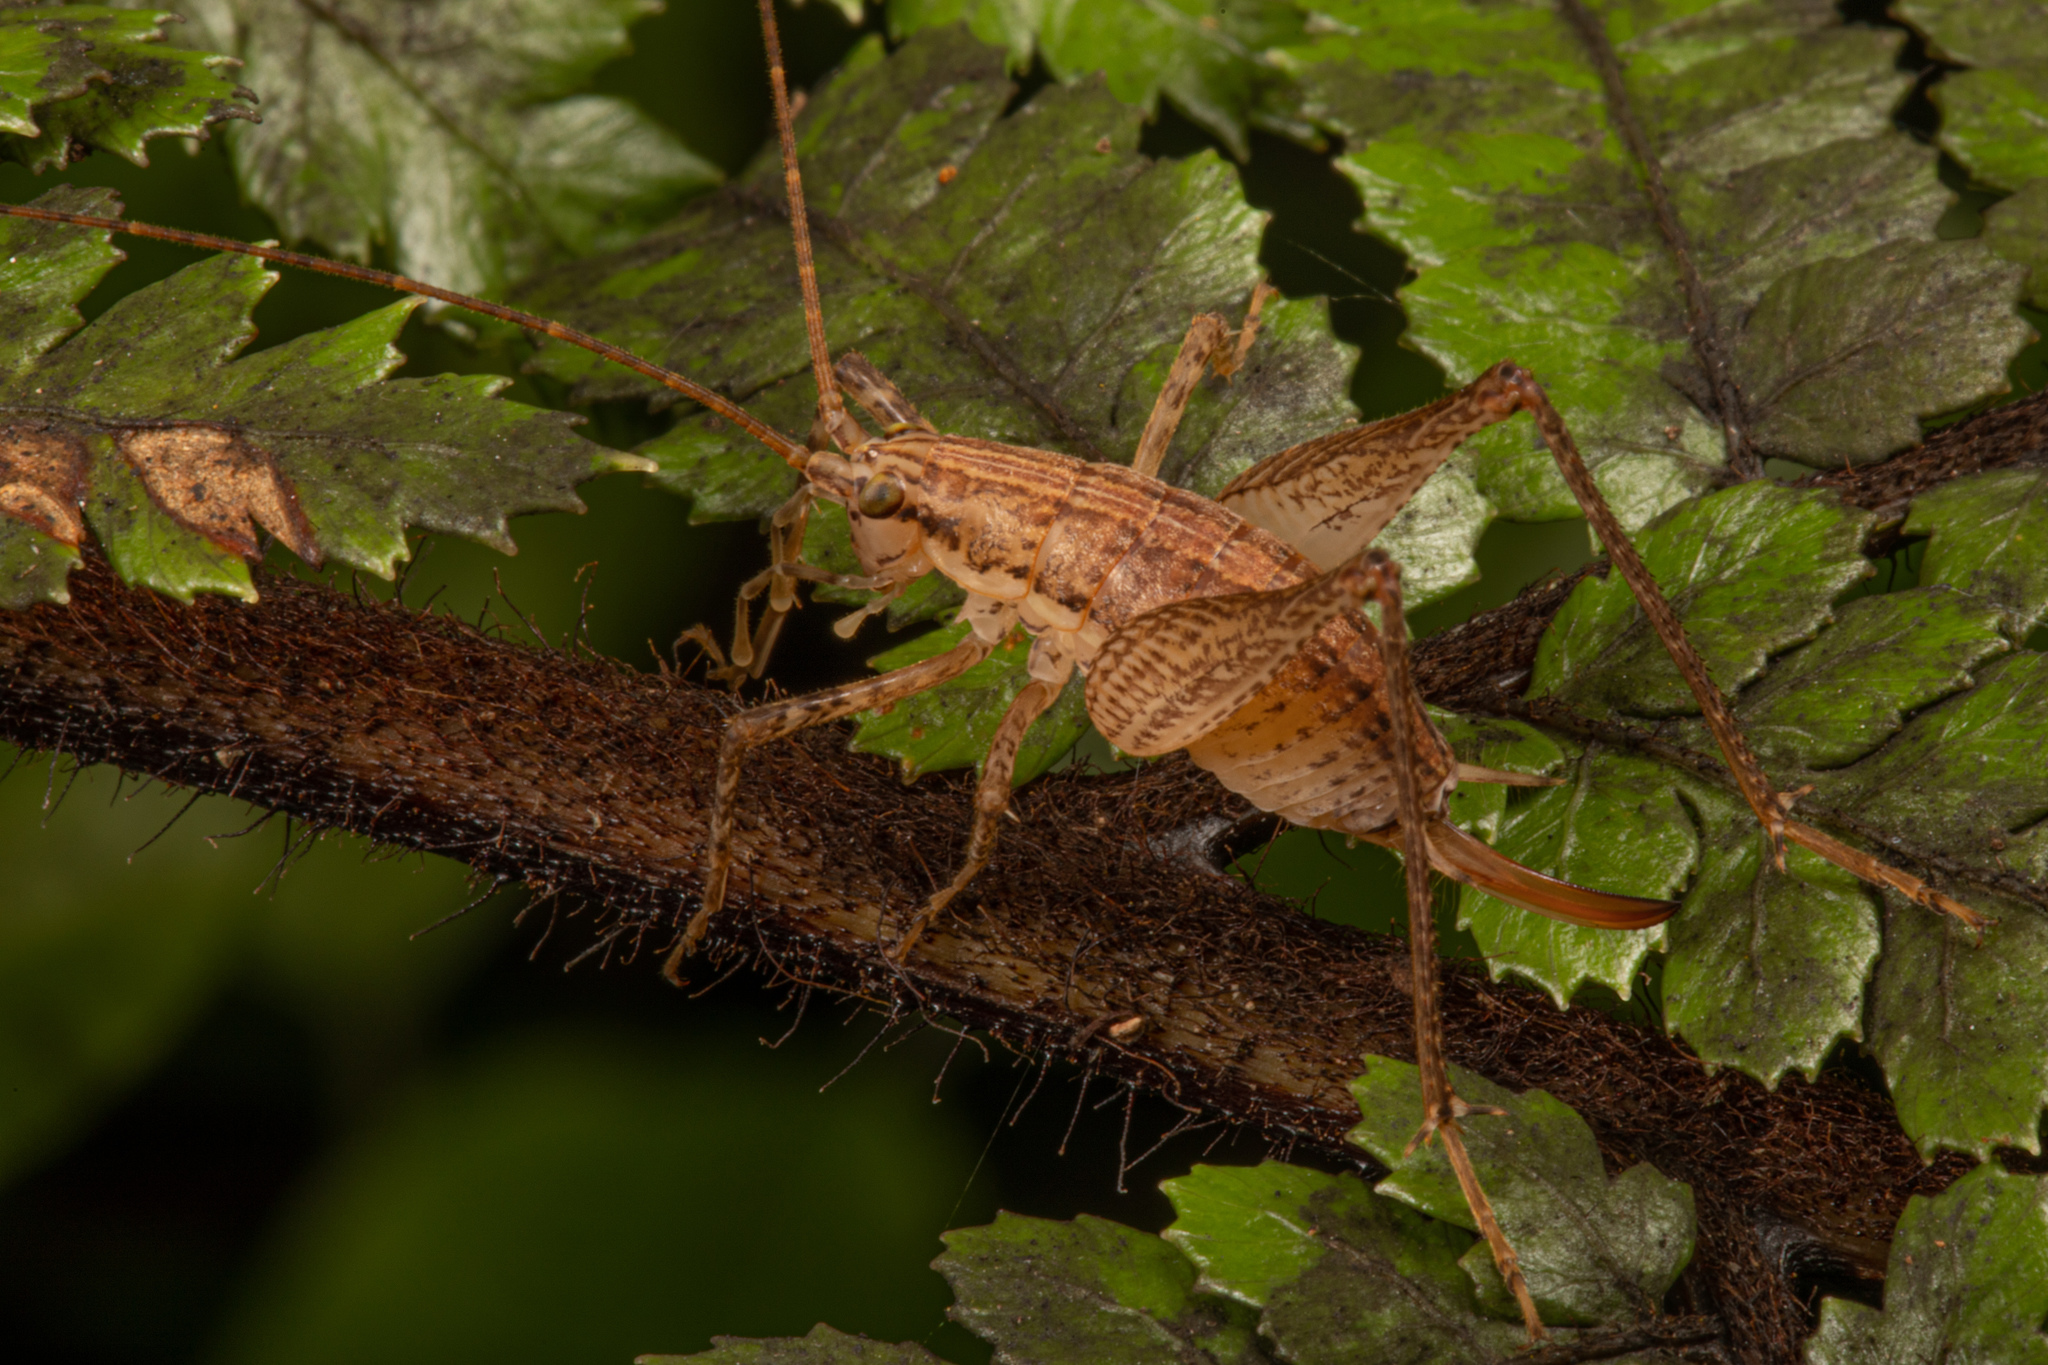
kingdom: Animalia
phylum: Arthropoda
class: Insecta
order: Orthoptera
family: Rhaphidophoridae
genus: Talitropsis
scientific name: Talitropsis poduroides
